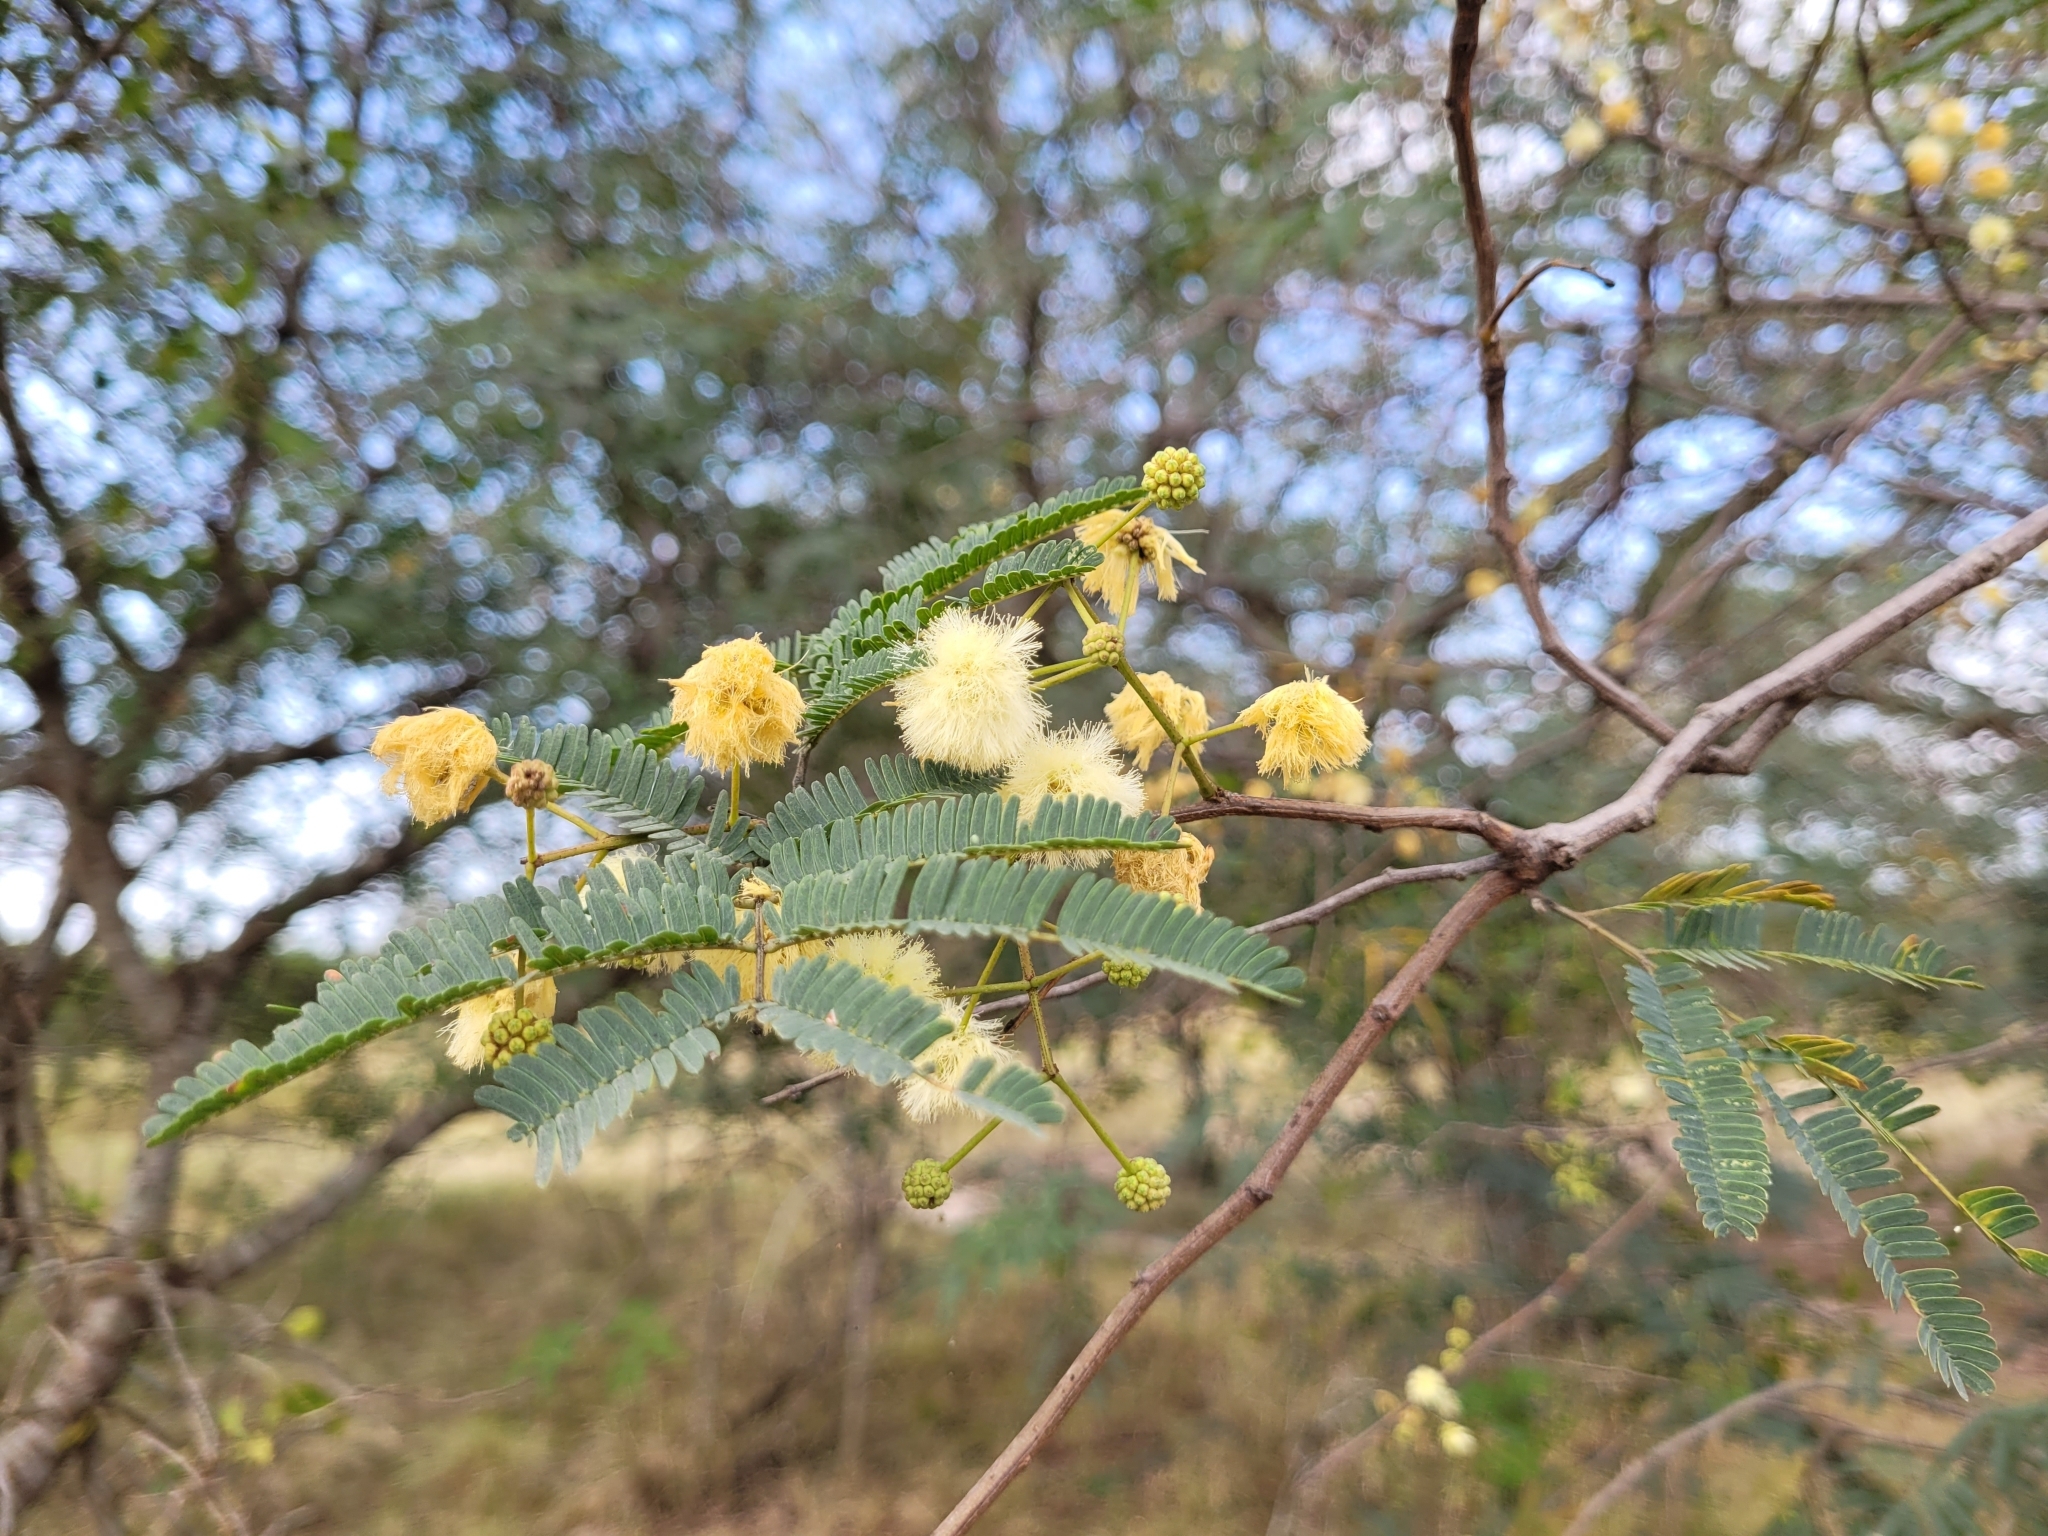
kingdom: Plantae
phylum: Tracheophyta
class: Magnoliopsida
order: Fabales
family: Fabaceae
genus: Senegalia
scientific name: Senegalia praecox
